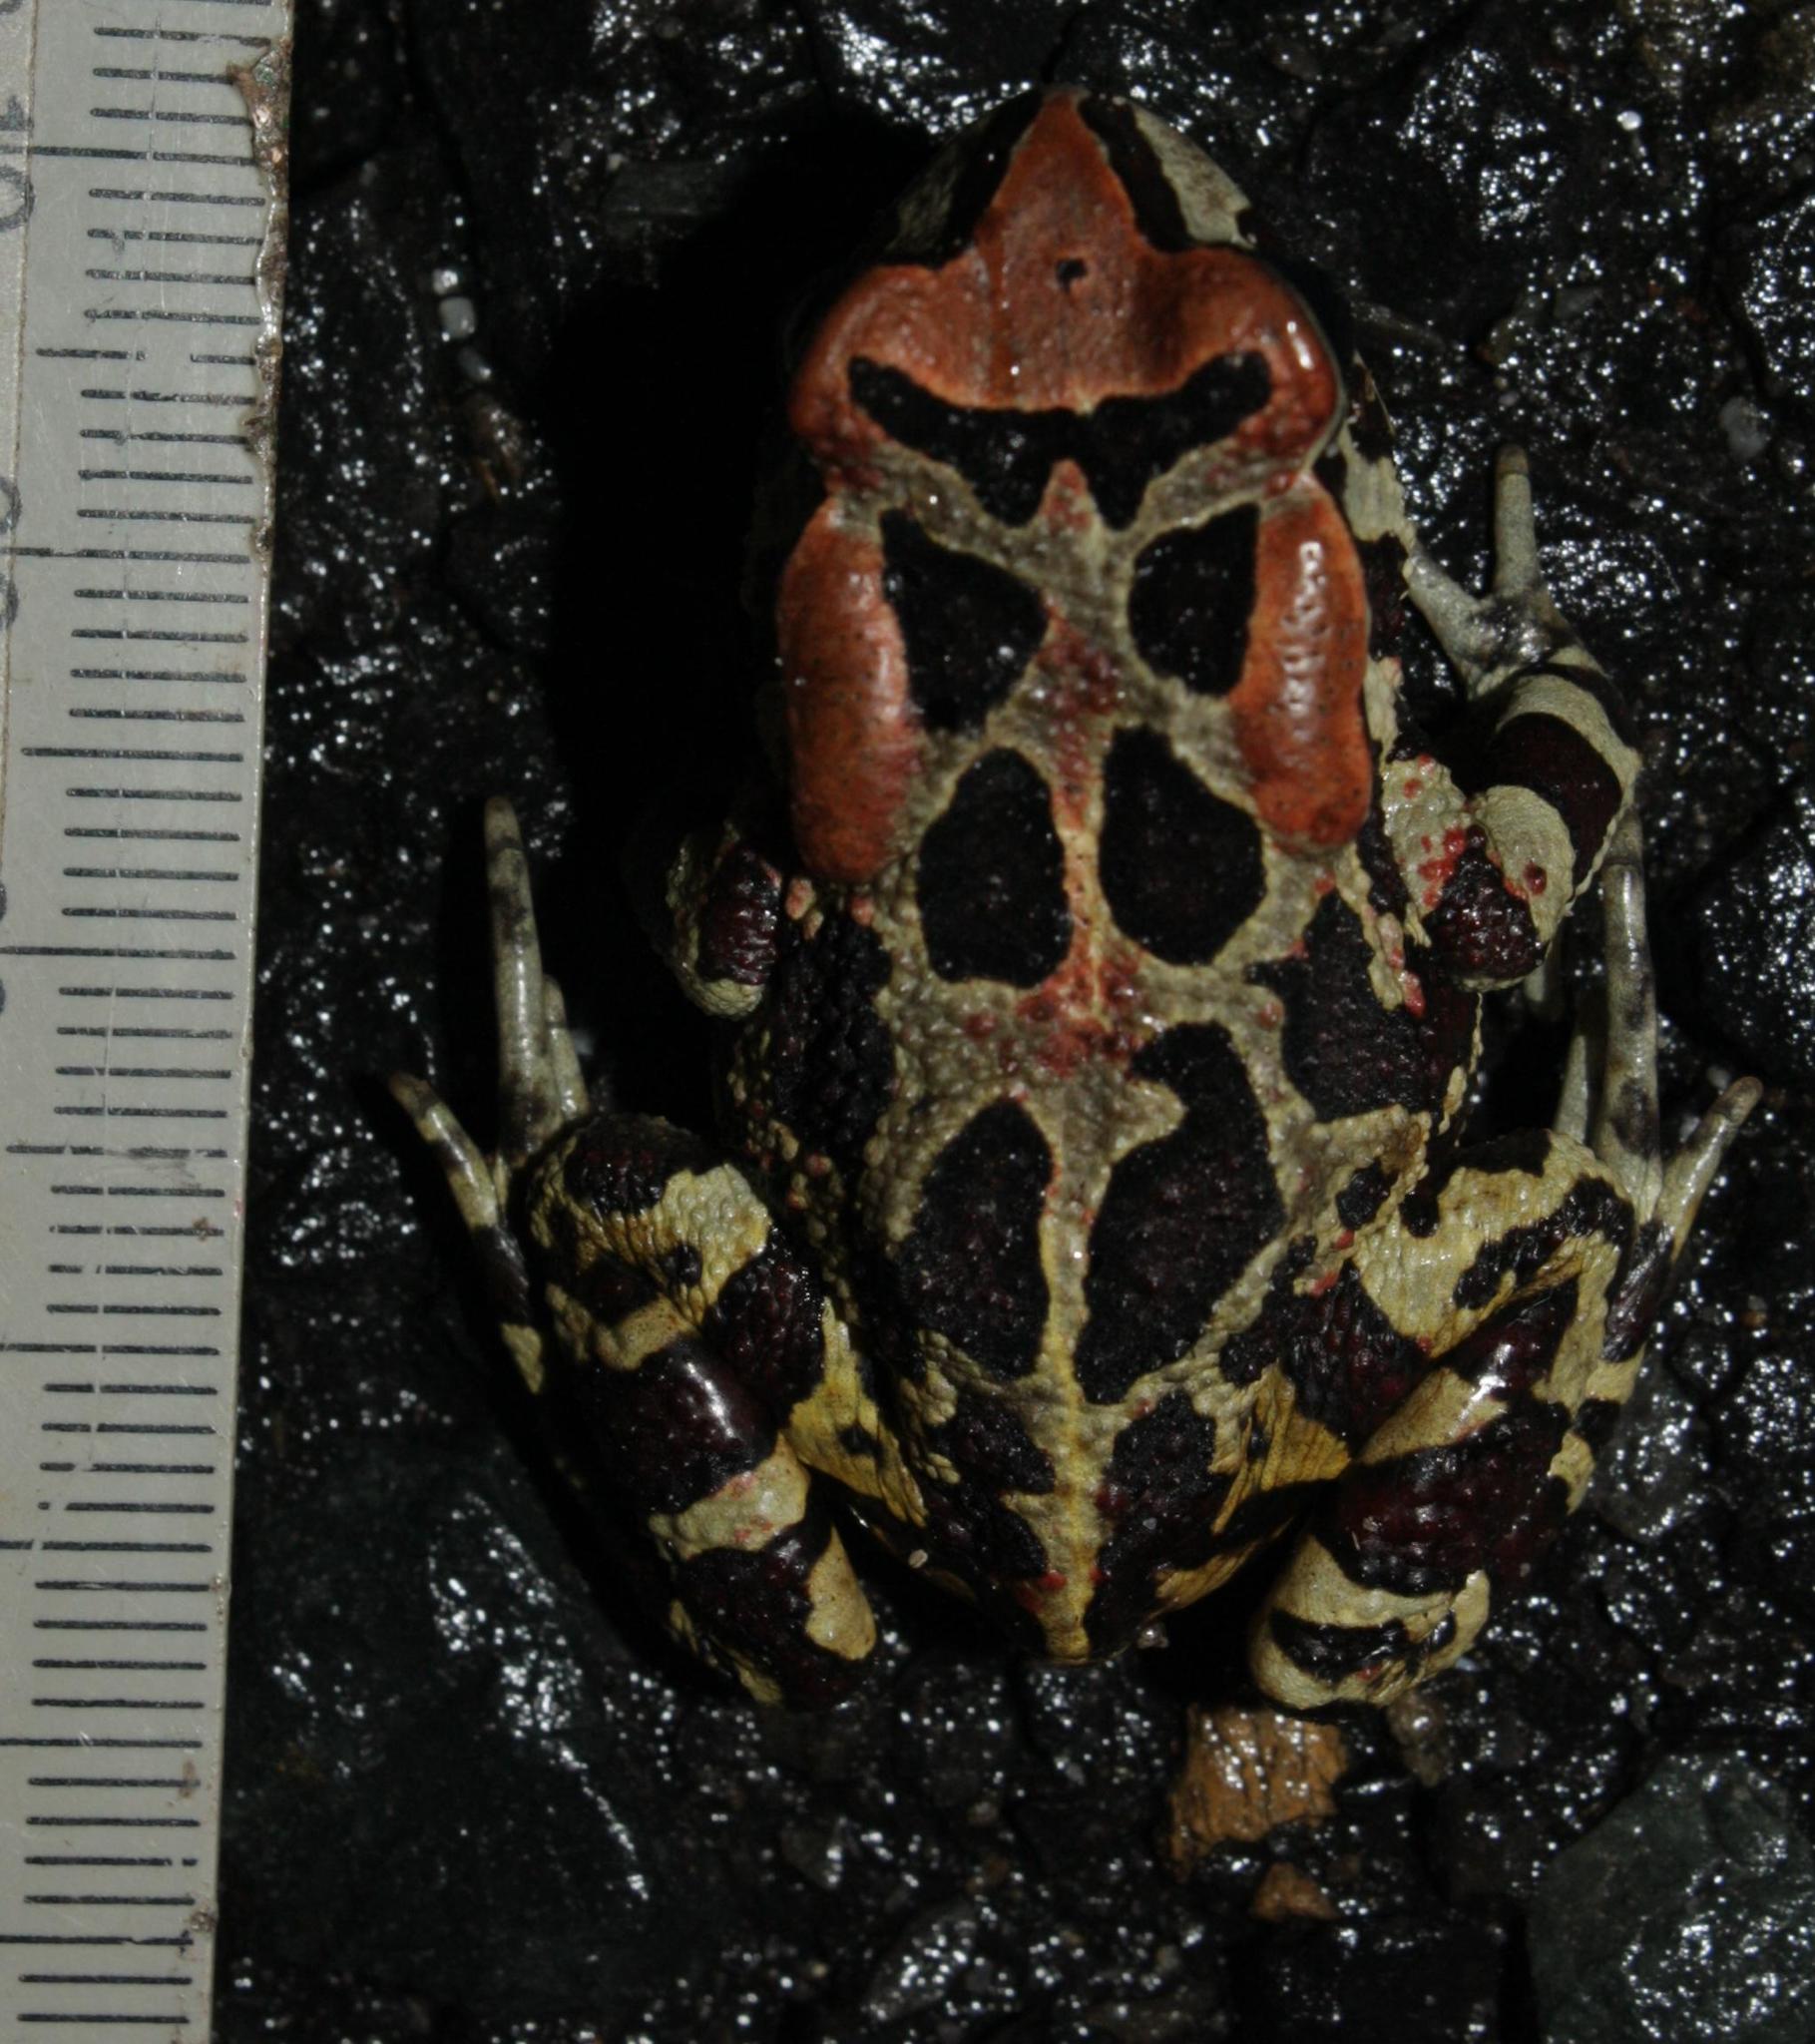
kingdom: Animalia
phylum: Chordata
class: Amphibia
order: Anura
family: Bufonidae
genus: Sclerophrys
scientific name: Sclerophrys pantherina
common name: Panther toad
